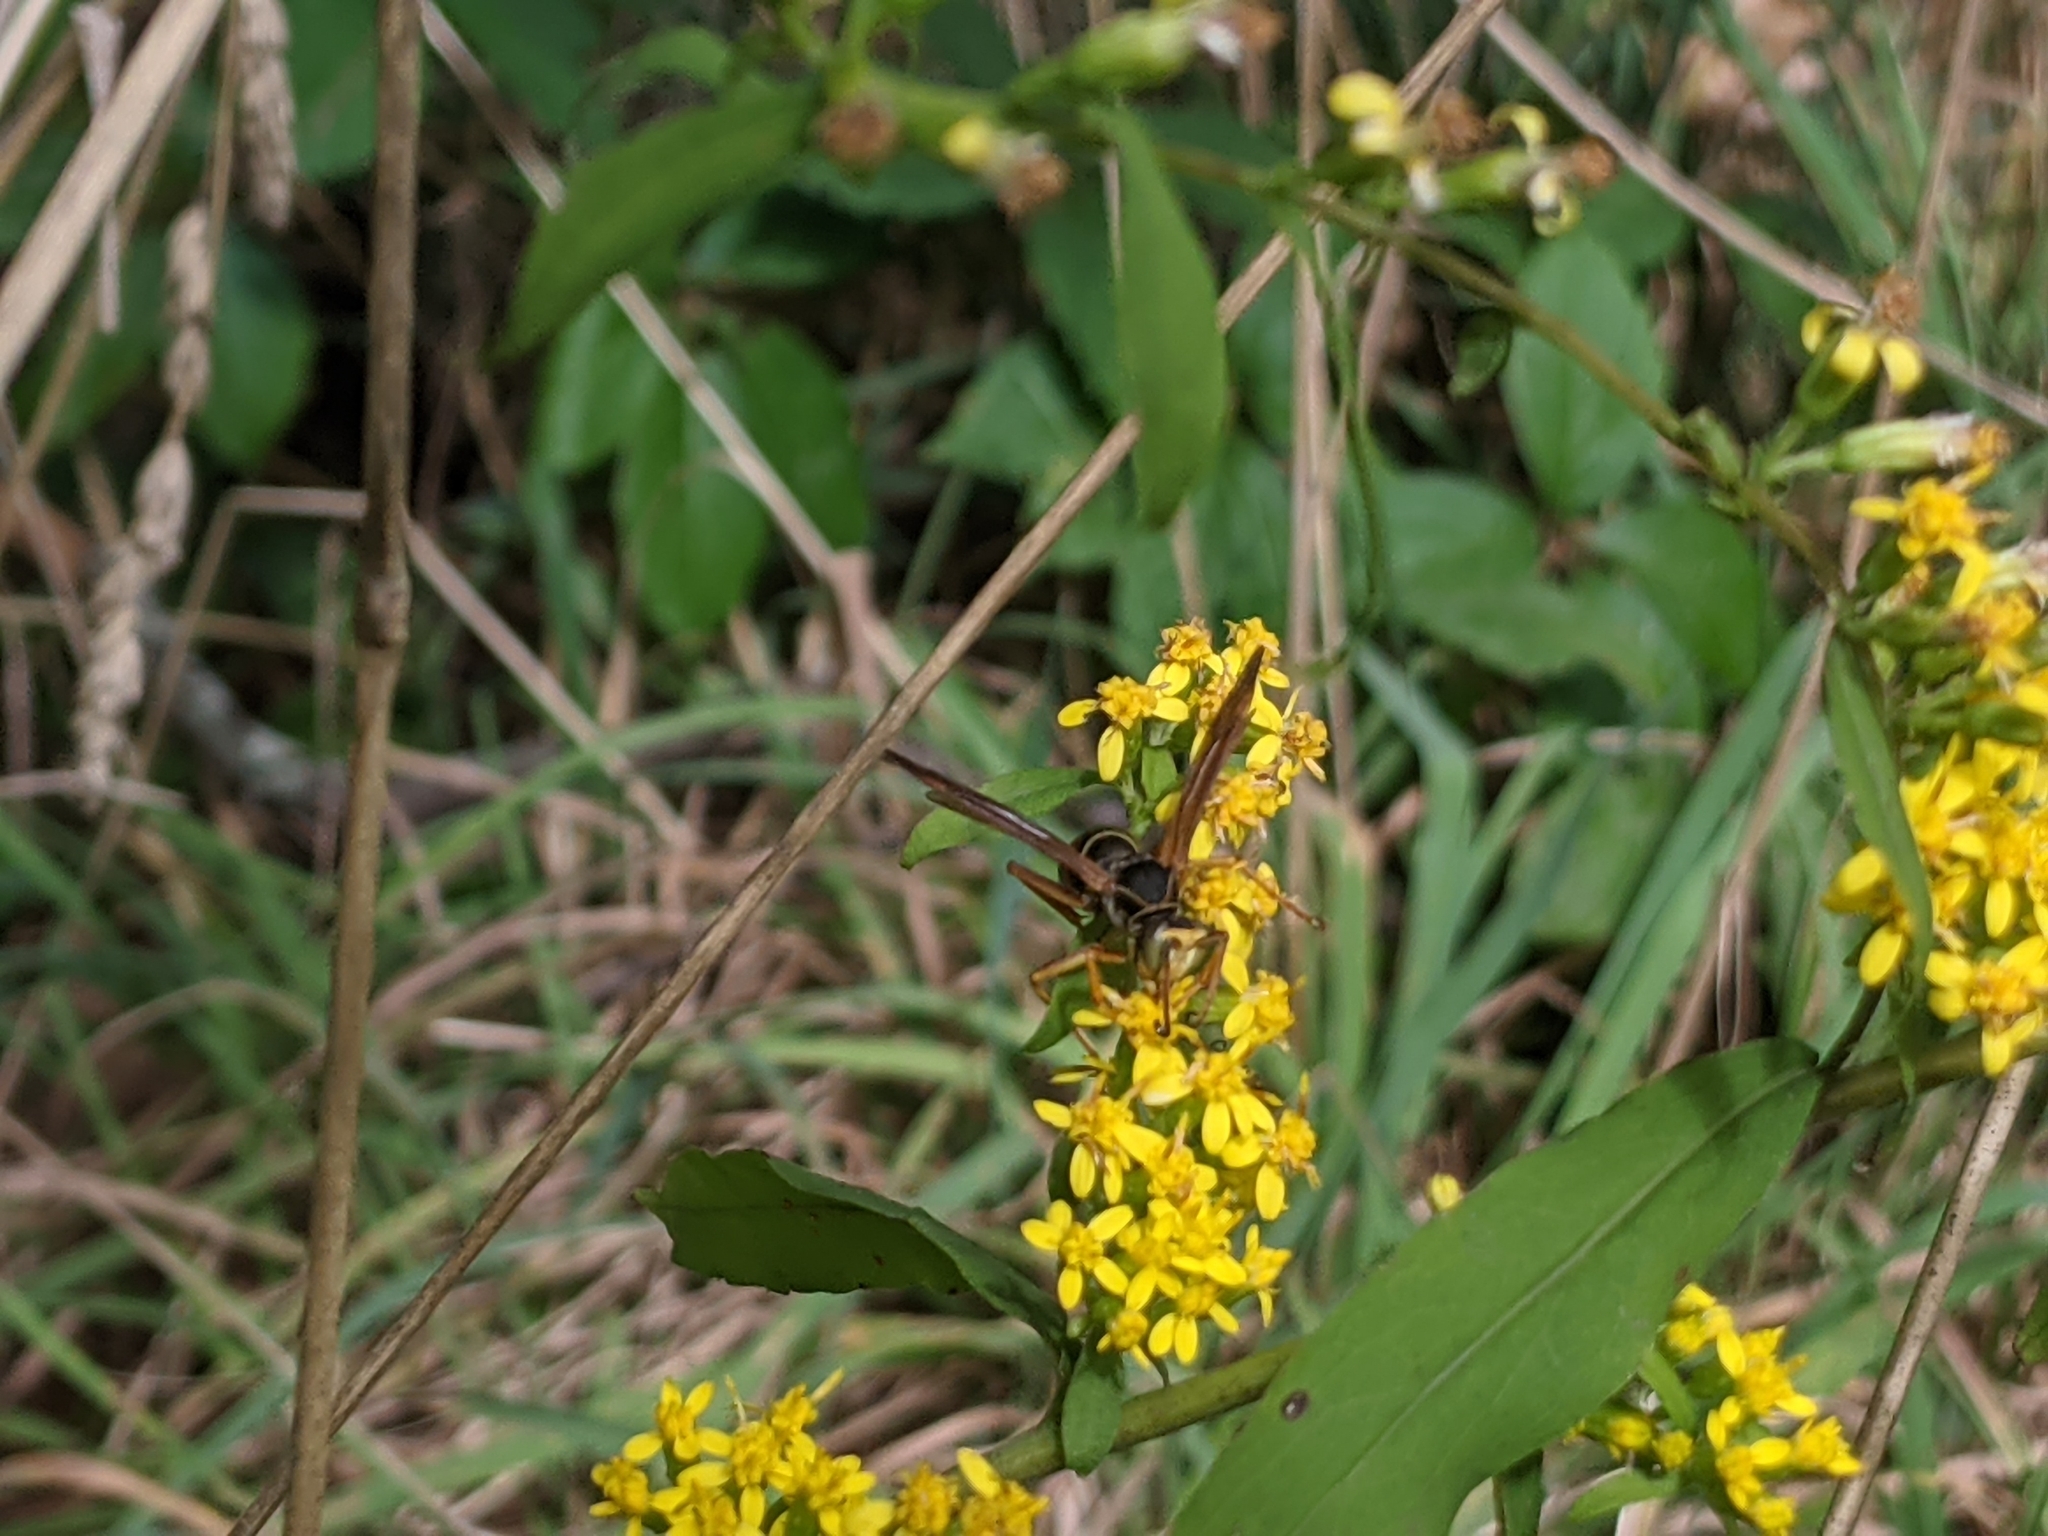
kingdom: Animalia
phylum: Arthropoda
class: Insecta
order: Hymenoptera
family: Eumenidae
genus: Polistes
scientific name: Polistes fuscatus
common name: Dark paper wasp
